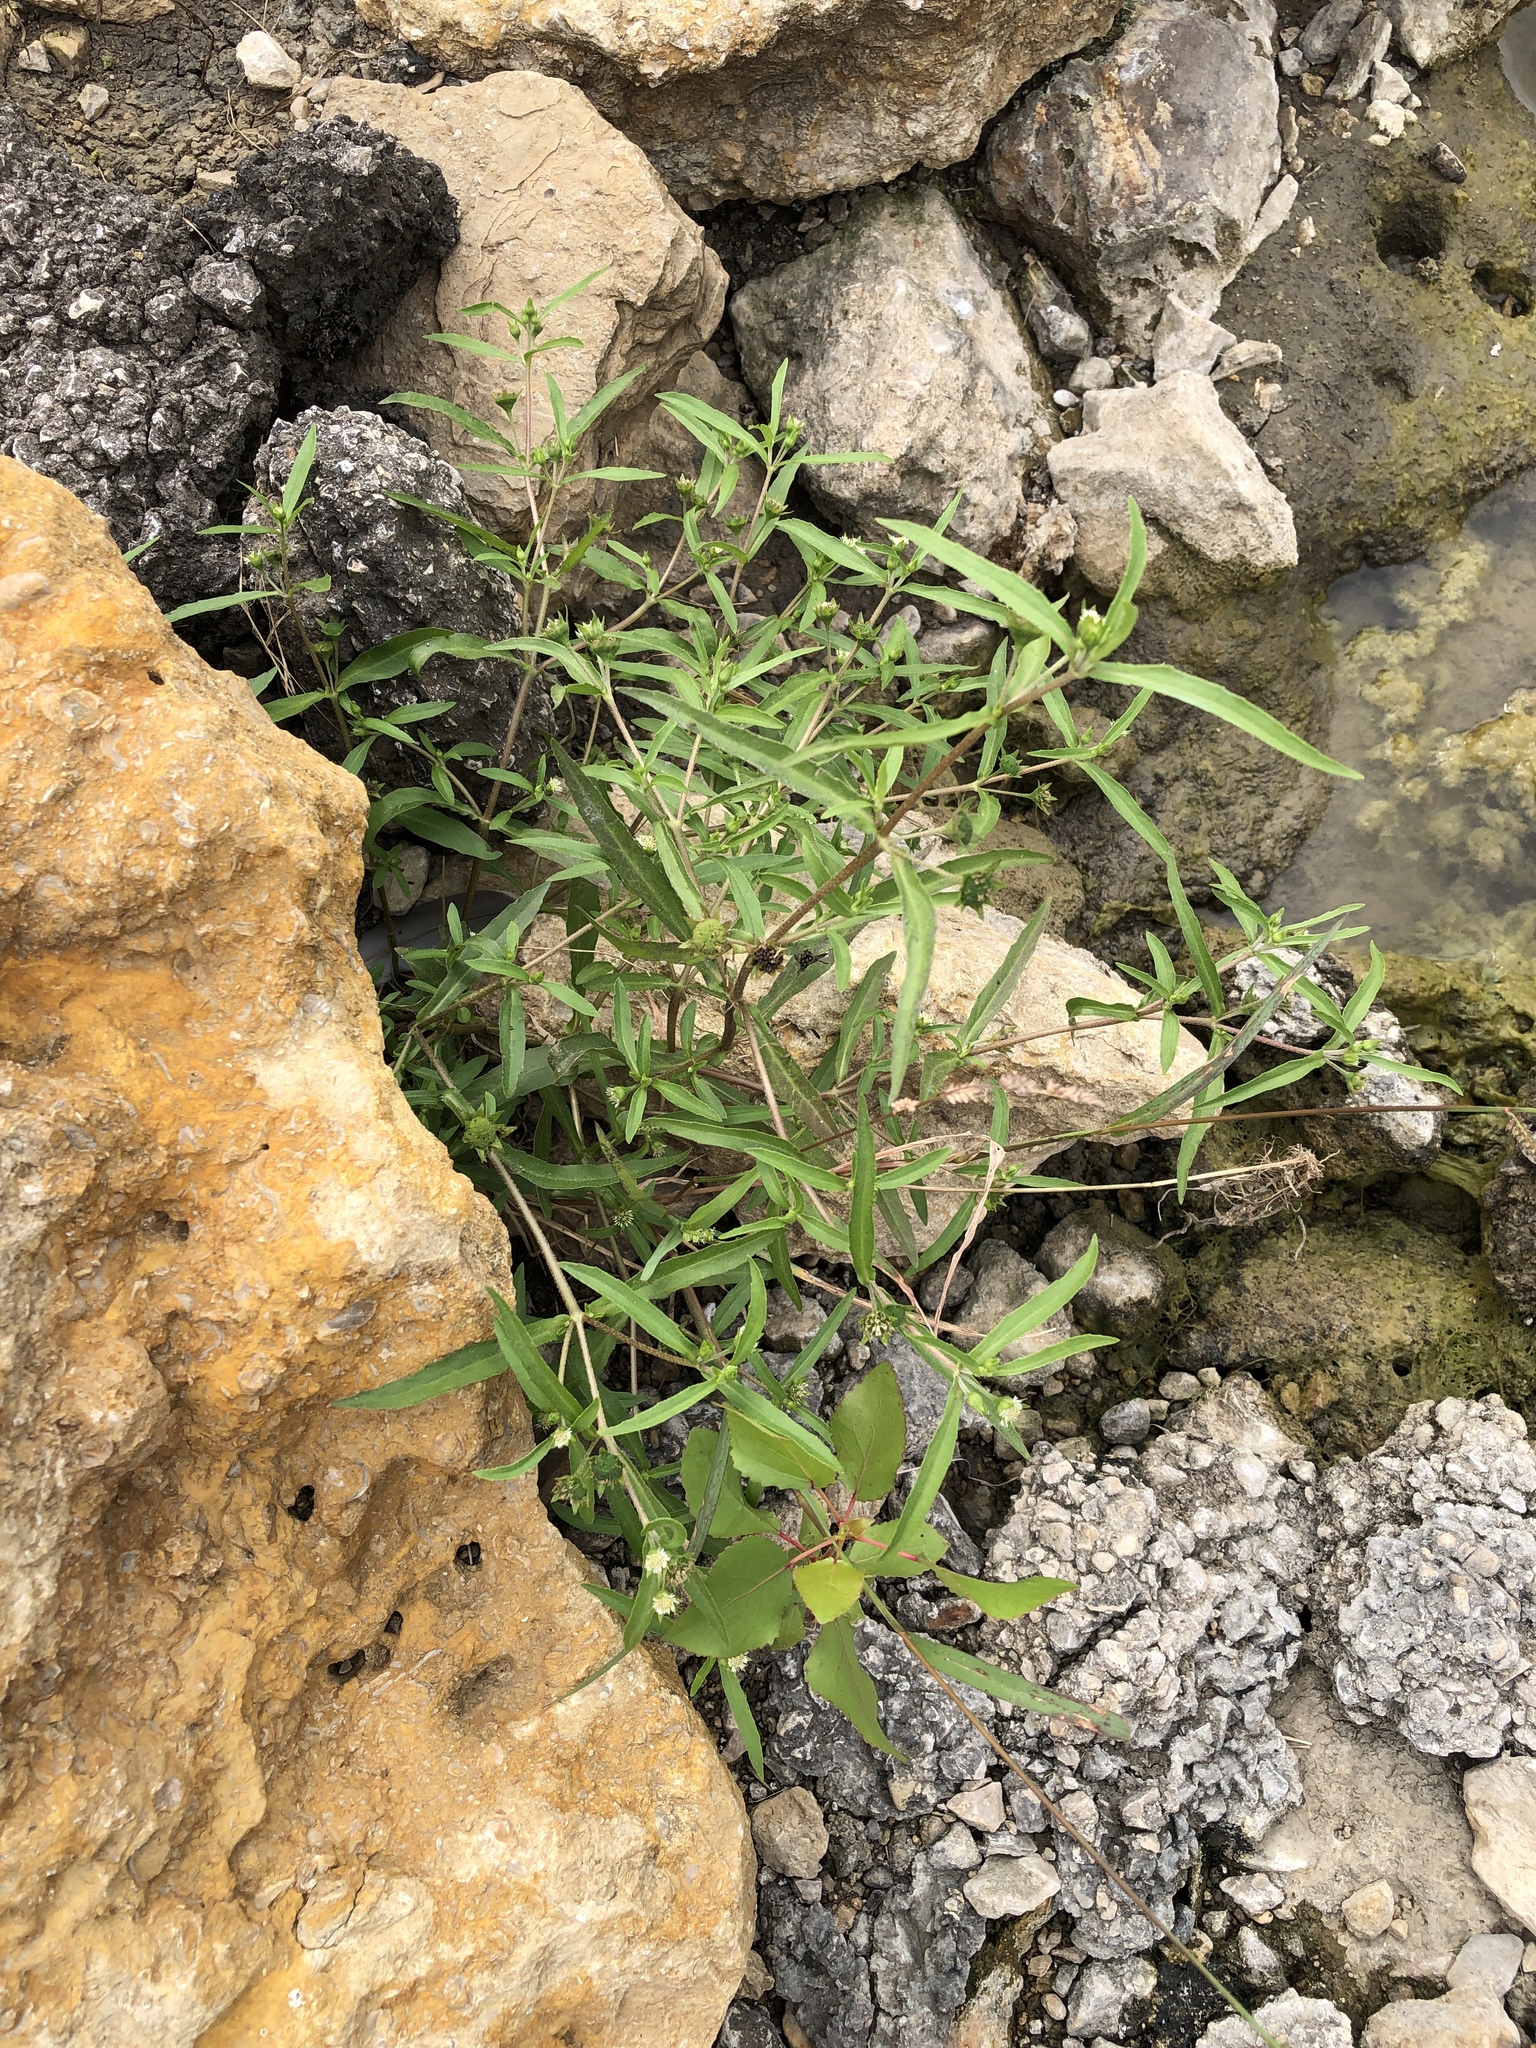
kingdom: Plantae
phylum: Tracheophyta
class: Magnoliopsida
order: Asterales
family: Asteraceae
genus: Eclipta
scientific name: Eclipta prostrata
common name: False daisy
